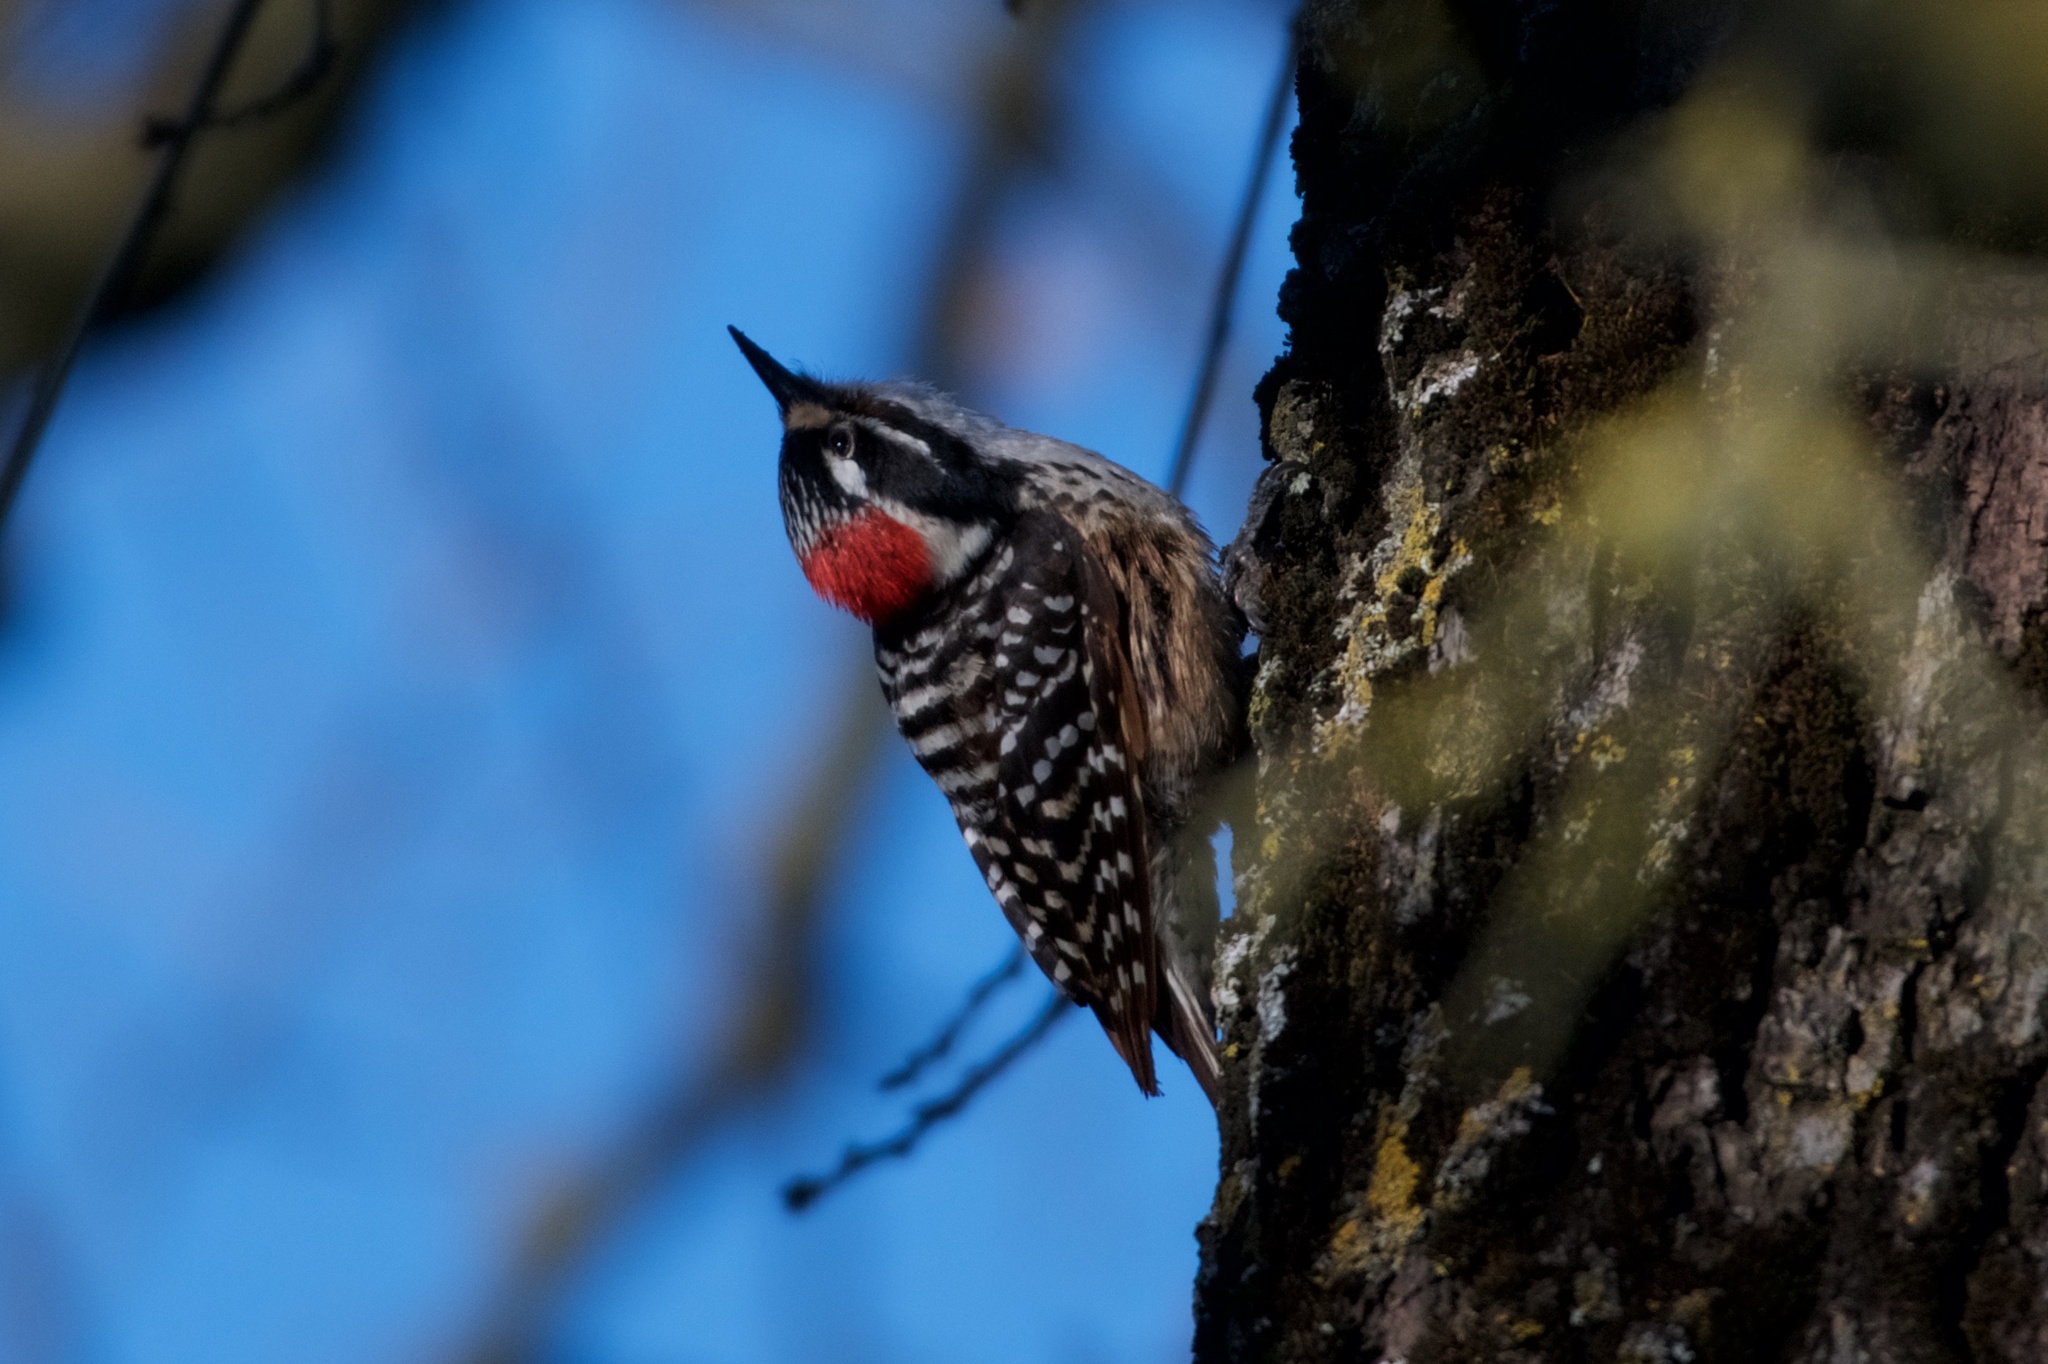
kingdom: Animalia
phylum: Chordata
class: Aves
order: Piciformes
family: Picidae
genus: Dryobates
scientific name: Dryobates nuttallii
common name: Nuttall's woodpecker
